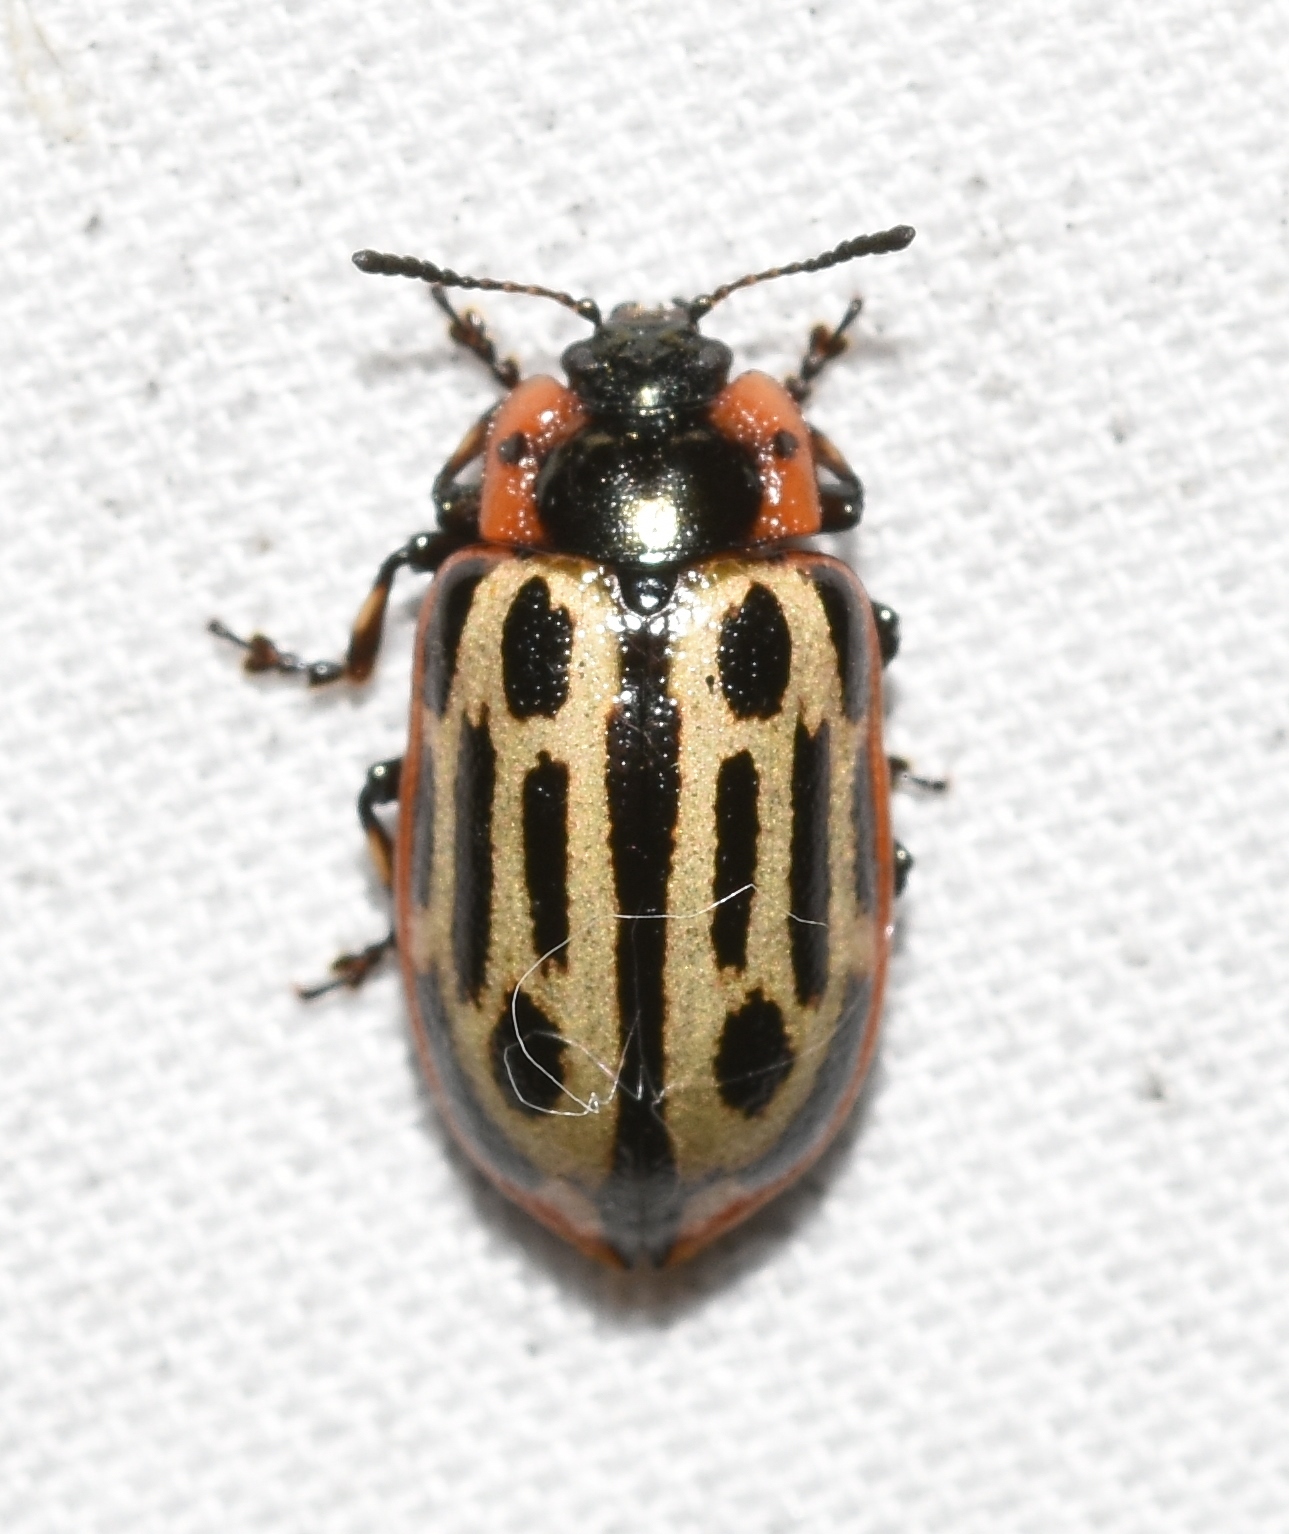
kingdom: Animalia
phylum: Arthropoda
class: Insecta
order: Coleoptera
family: Chrysomelidae
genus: Aethiopocassis
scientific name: Aethiopocassis scripta
